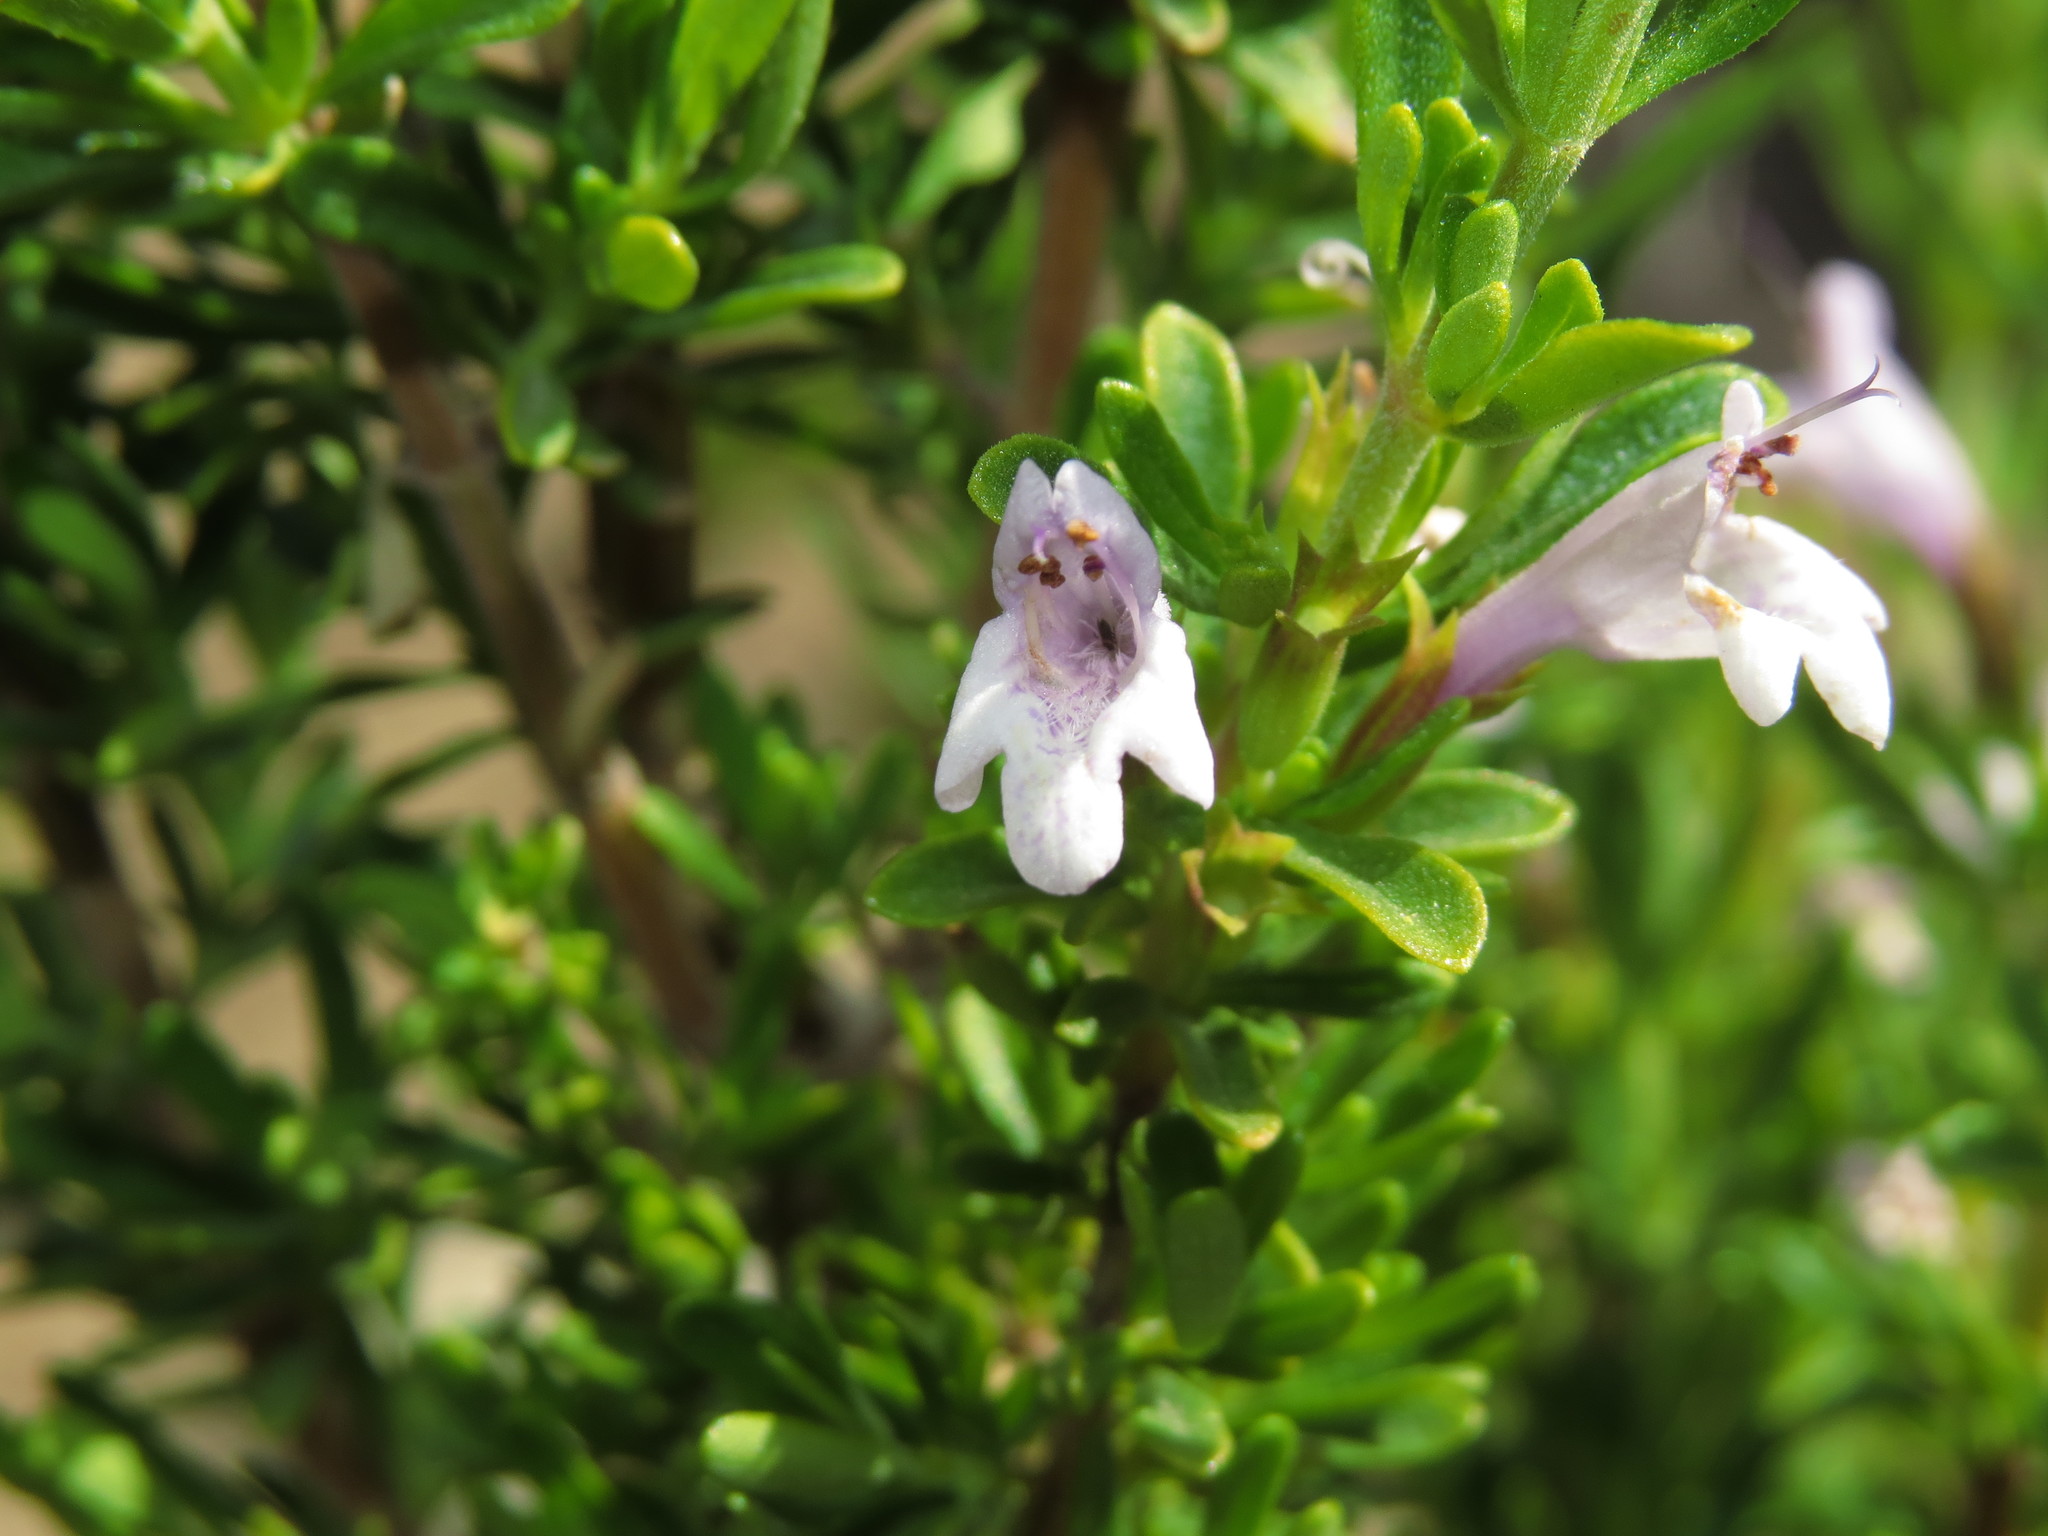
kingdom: Plantae
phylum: Tracheophyta
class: Magnoliopsida
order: Lamiales
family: Lamiaceae
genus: Clinopodium
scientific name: Clinopodium chilense
